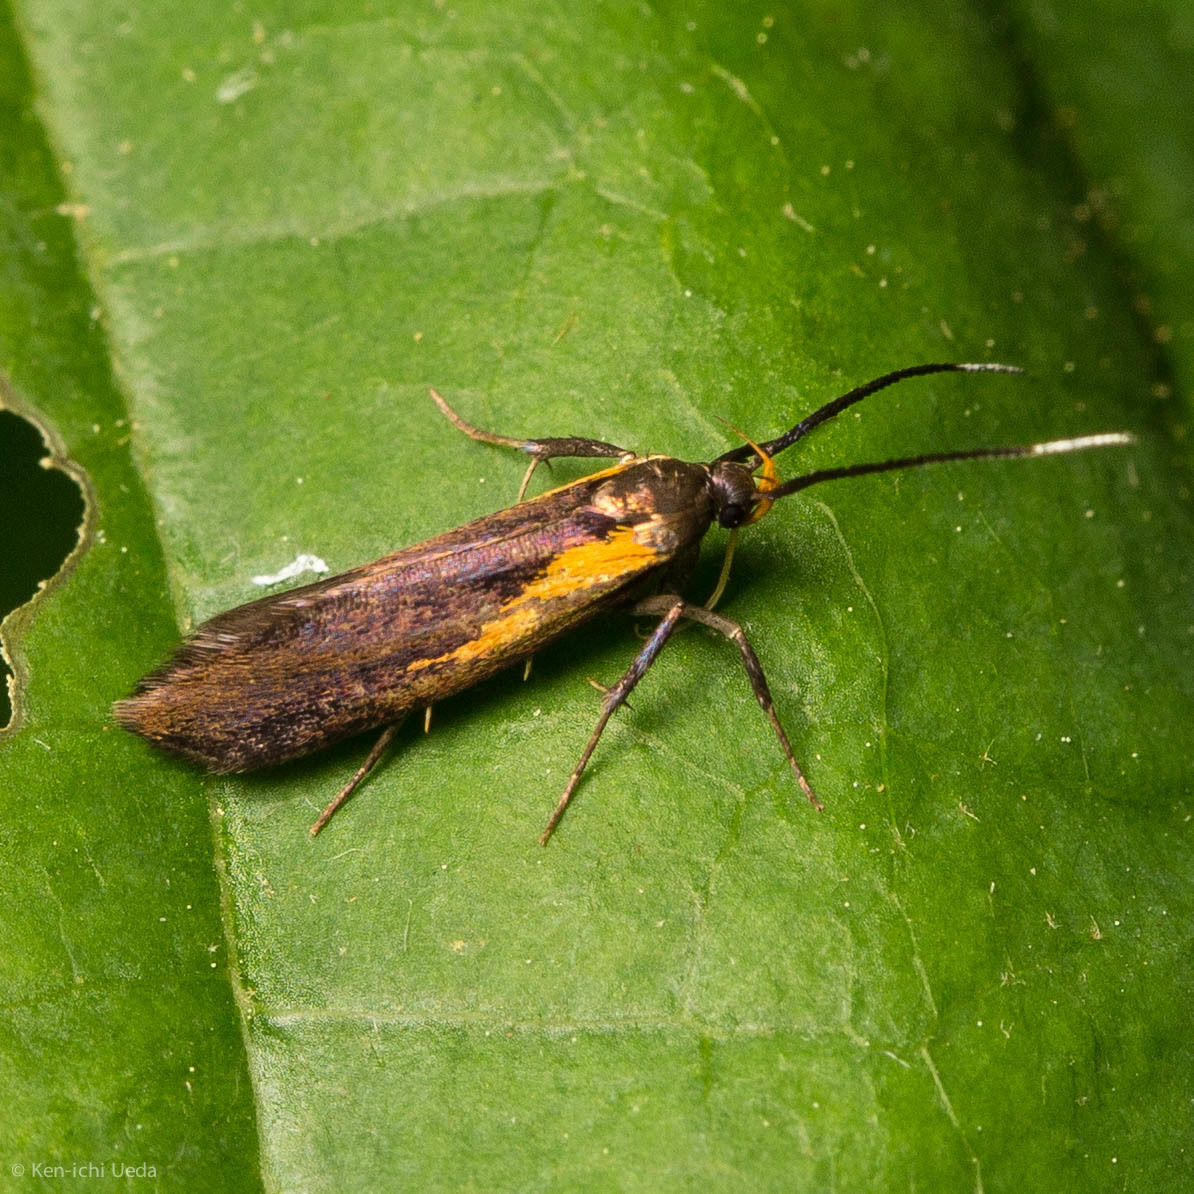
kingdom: Animalia
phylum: Arthropoda
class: Insecta
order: Lepidoptera
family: Oecophoridae
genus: Mathildana
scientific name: Mathildana newmanella
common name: Newman's mathildana moth
